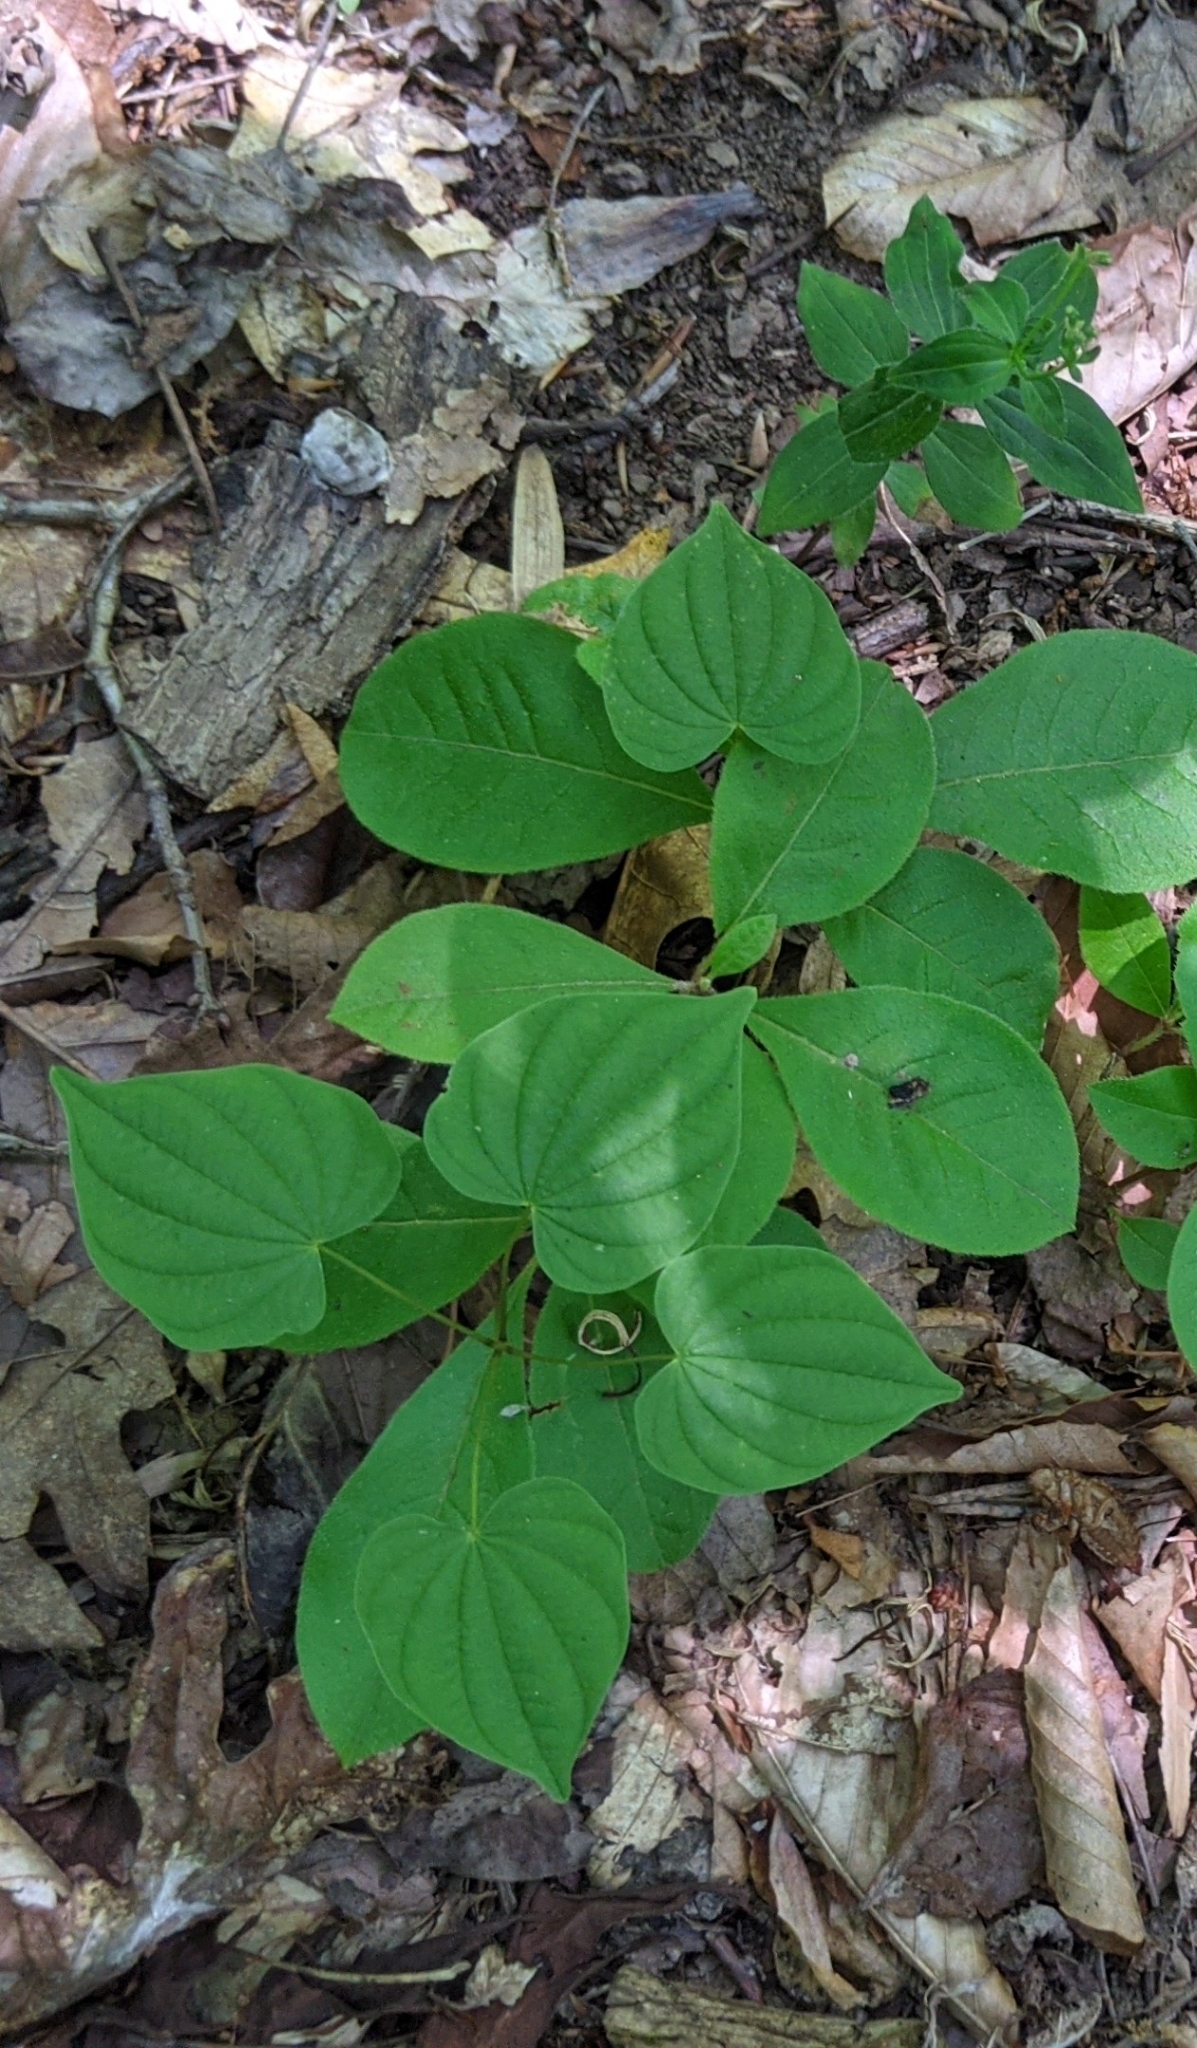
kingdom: Plantae
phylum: Tracheophyta
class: Liliopsida
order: Dioscoreales
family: Dioscoreaceae
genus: Dioscorea
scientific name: Dioscorea villosa
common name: Wild yam
